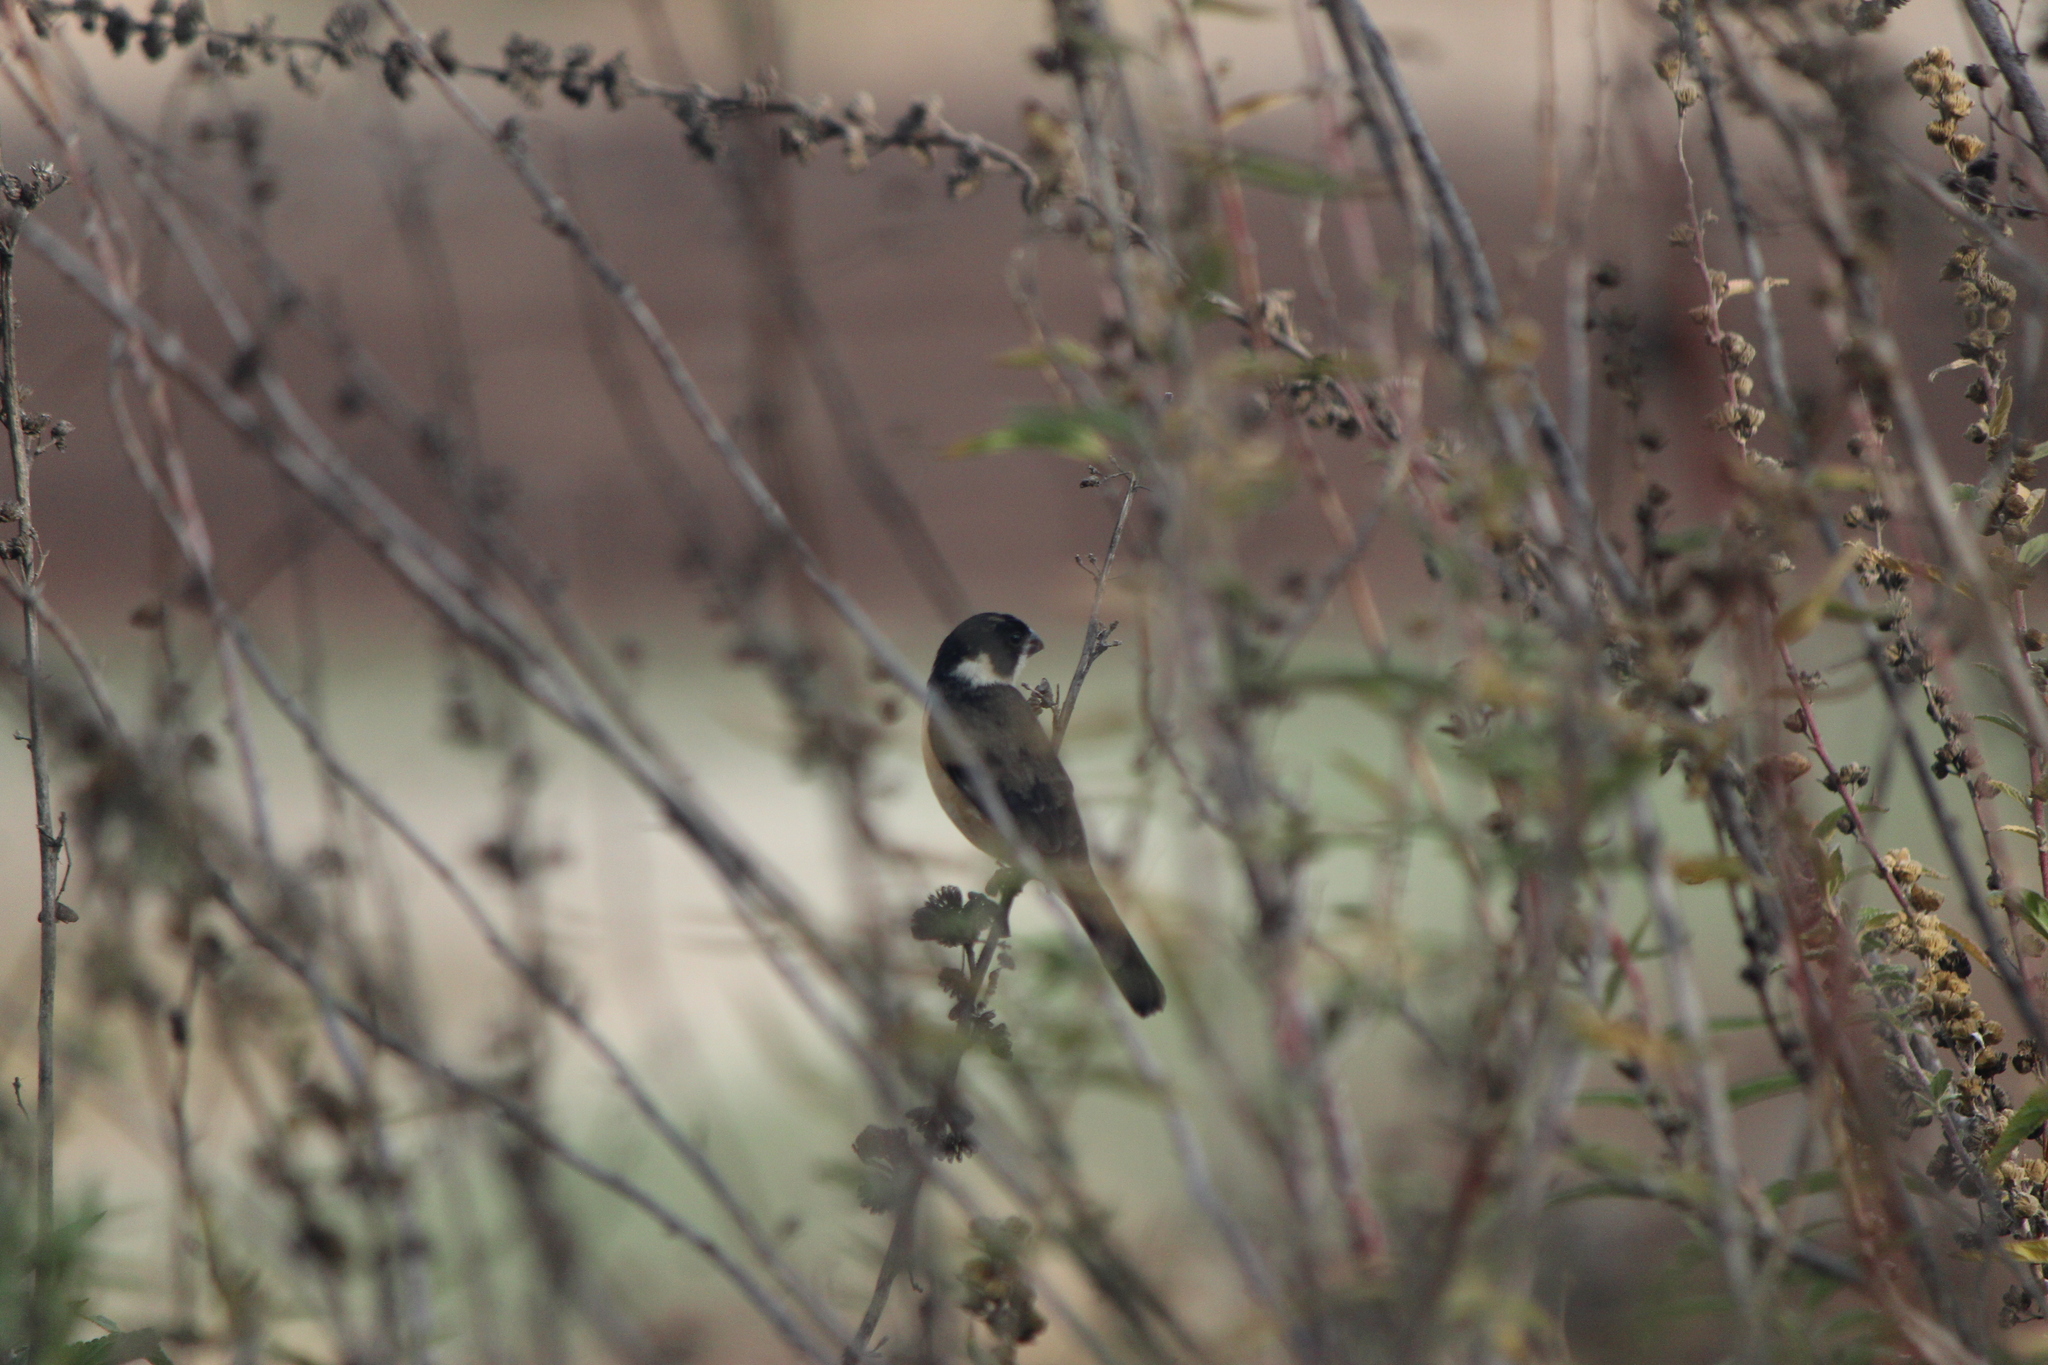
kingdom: Animalia
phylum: Chordata
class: Aves
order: Passeriformes
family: Thraupidae
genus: Sporophila
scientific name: Sporophila torqueola
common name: White-collared seedeater
